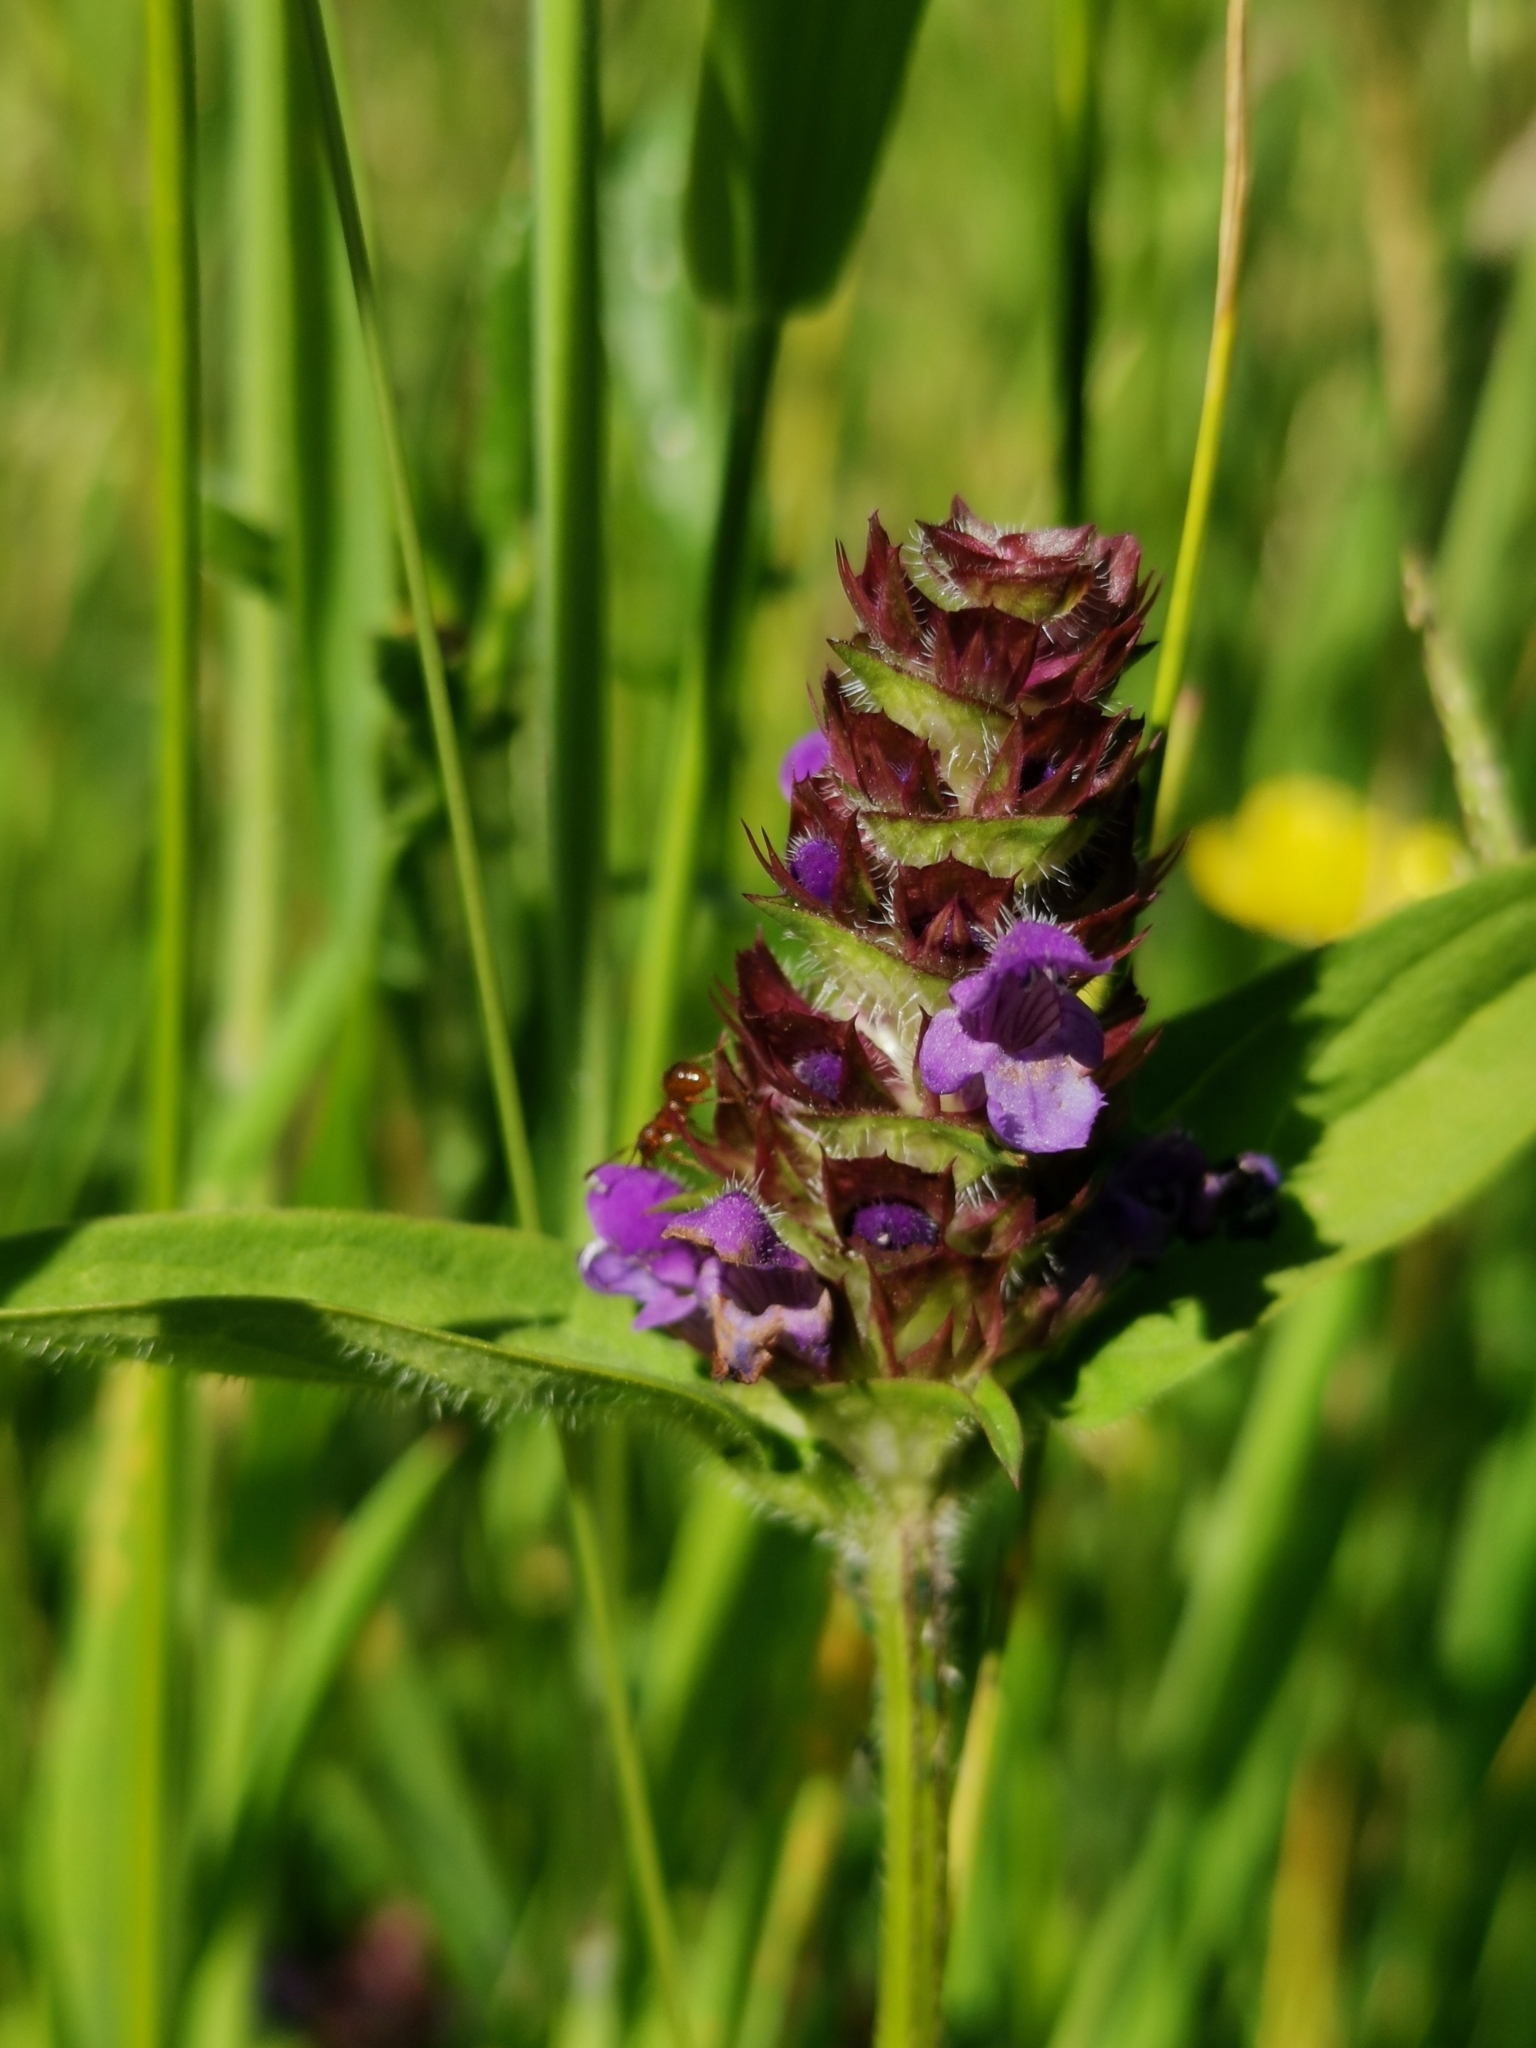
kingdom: Plantae
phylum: Tracheophyta
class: Magnoliopsida
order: Lamiales
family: Lamiaceae
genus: Prunella
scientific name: Prunella vulgaris
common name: Heal-all
